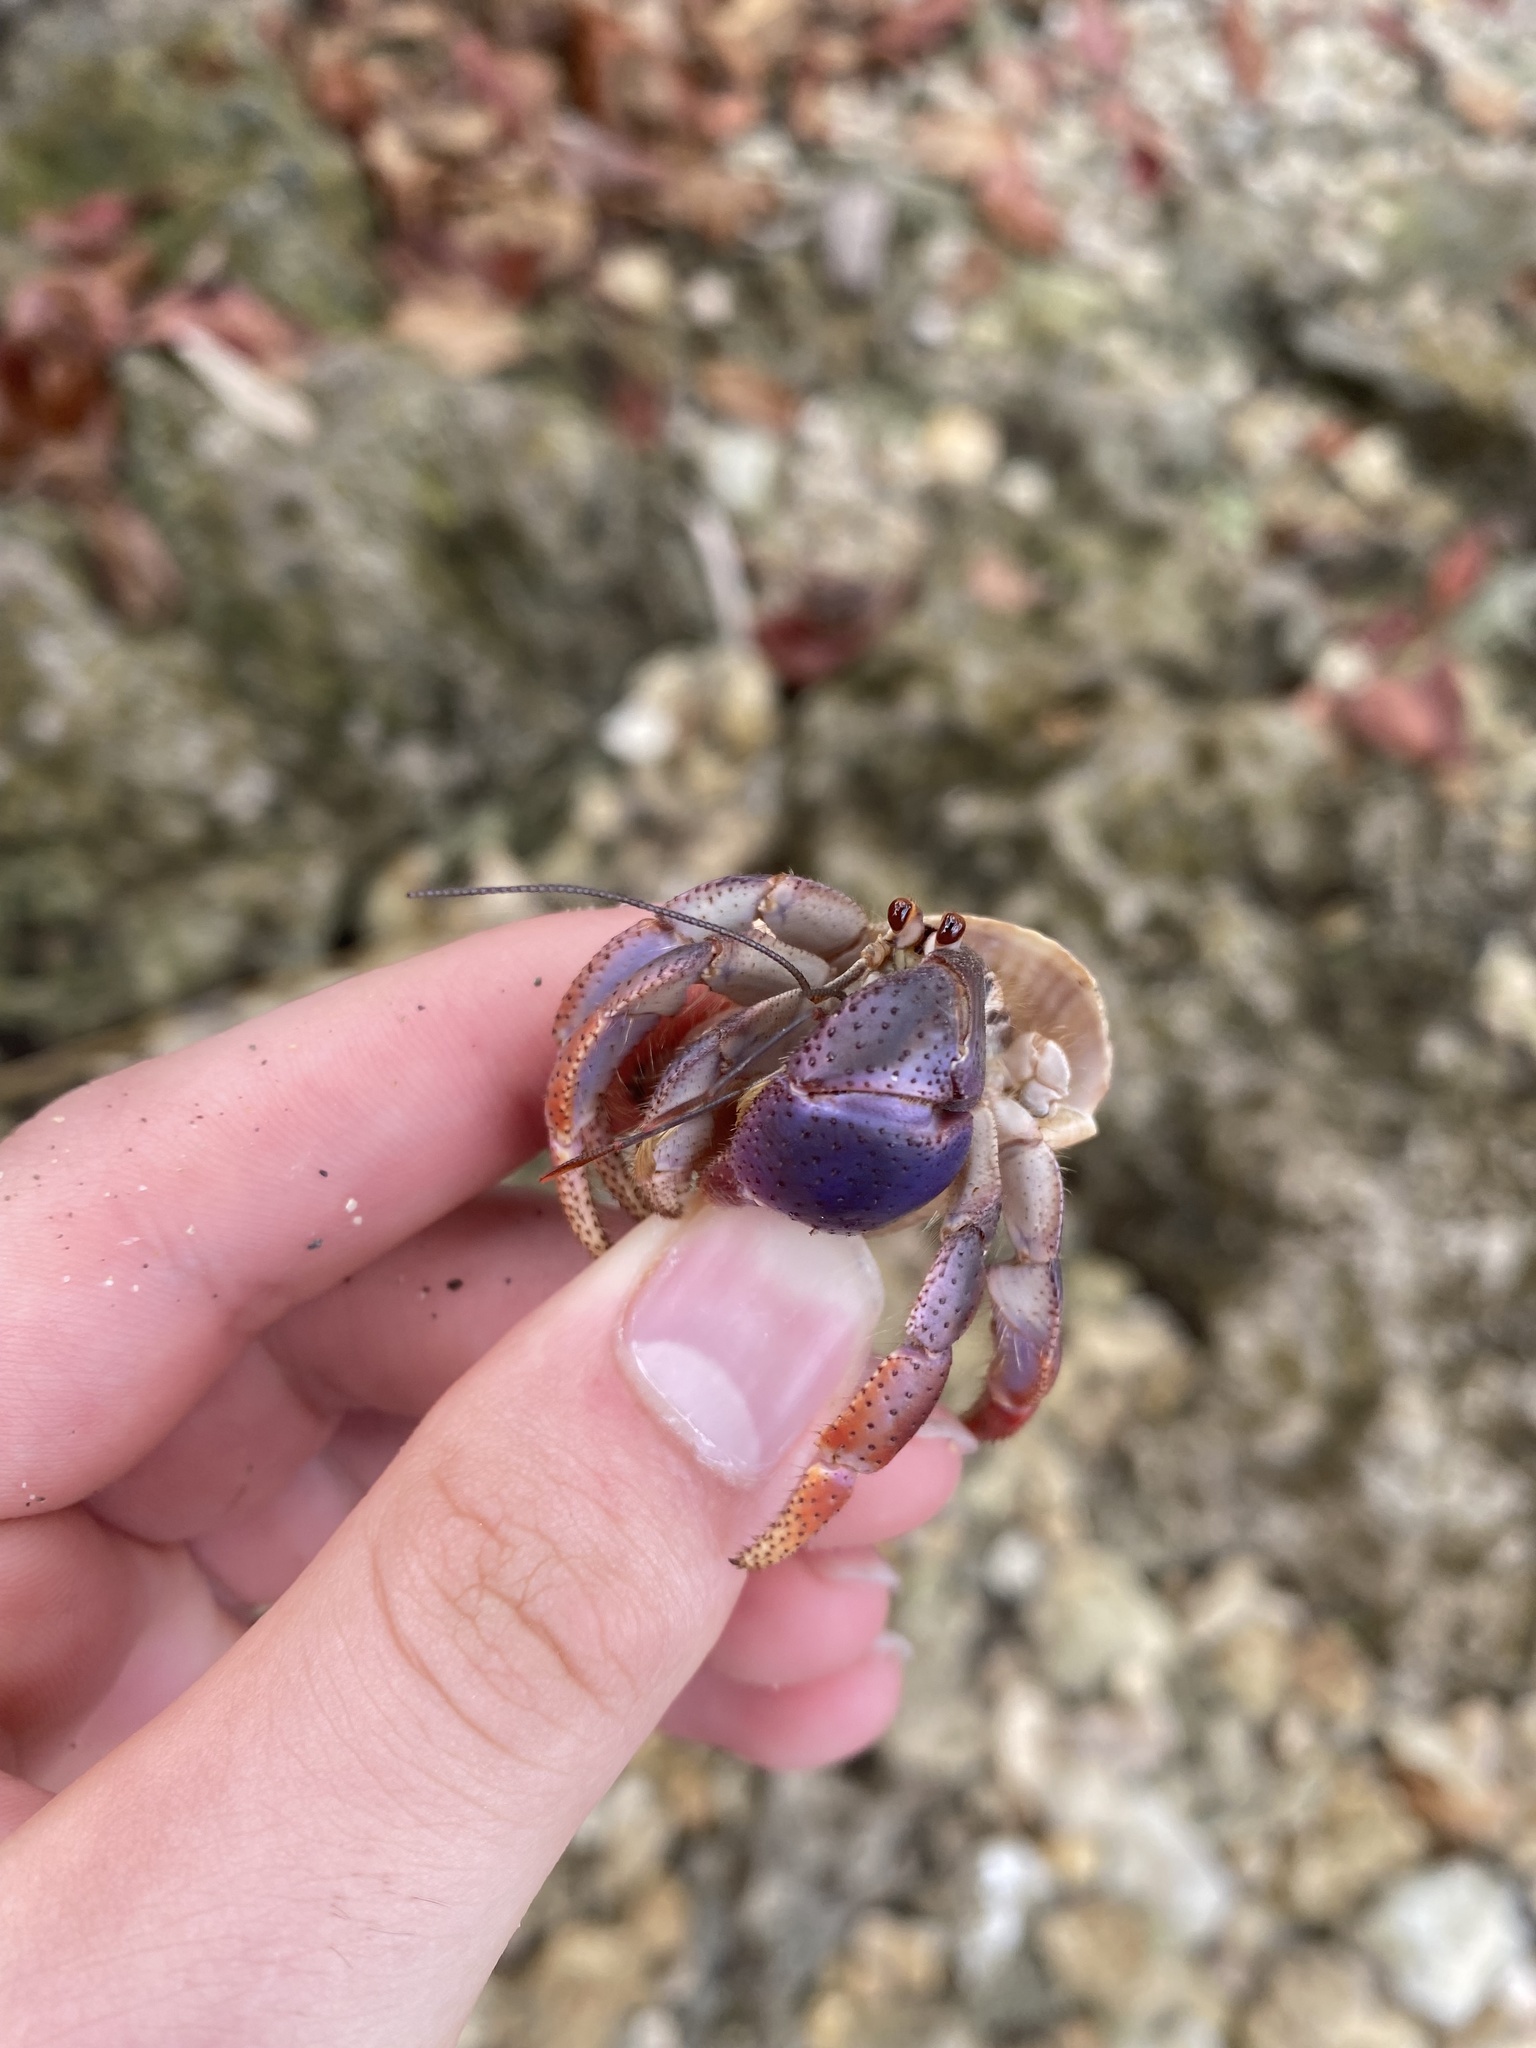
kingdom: Animalia
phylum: Arthropoda
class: Malacostraca
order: Decapoda
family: Coenobitidae
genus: Coenobita
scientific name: Coenobita clypeatus
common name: Caribbean hermit crab
